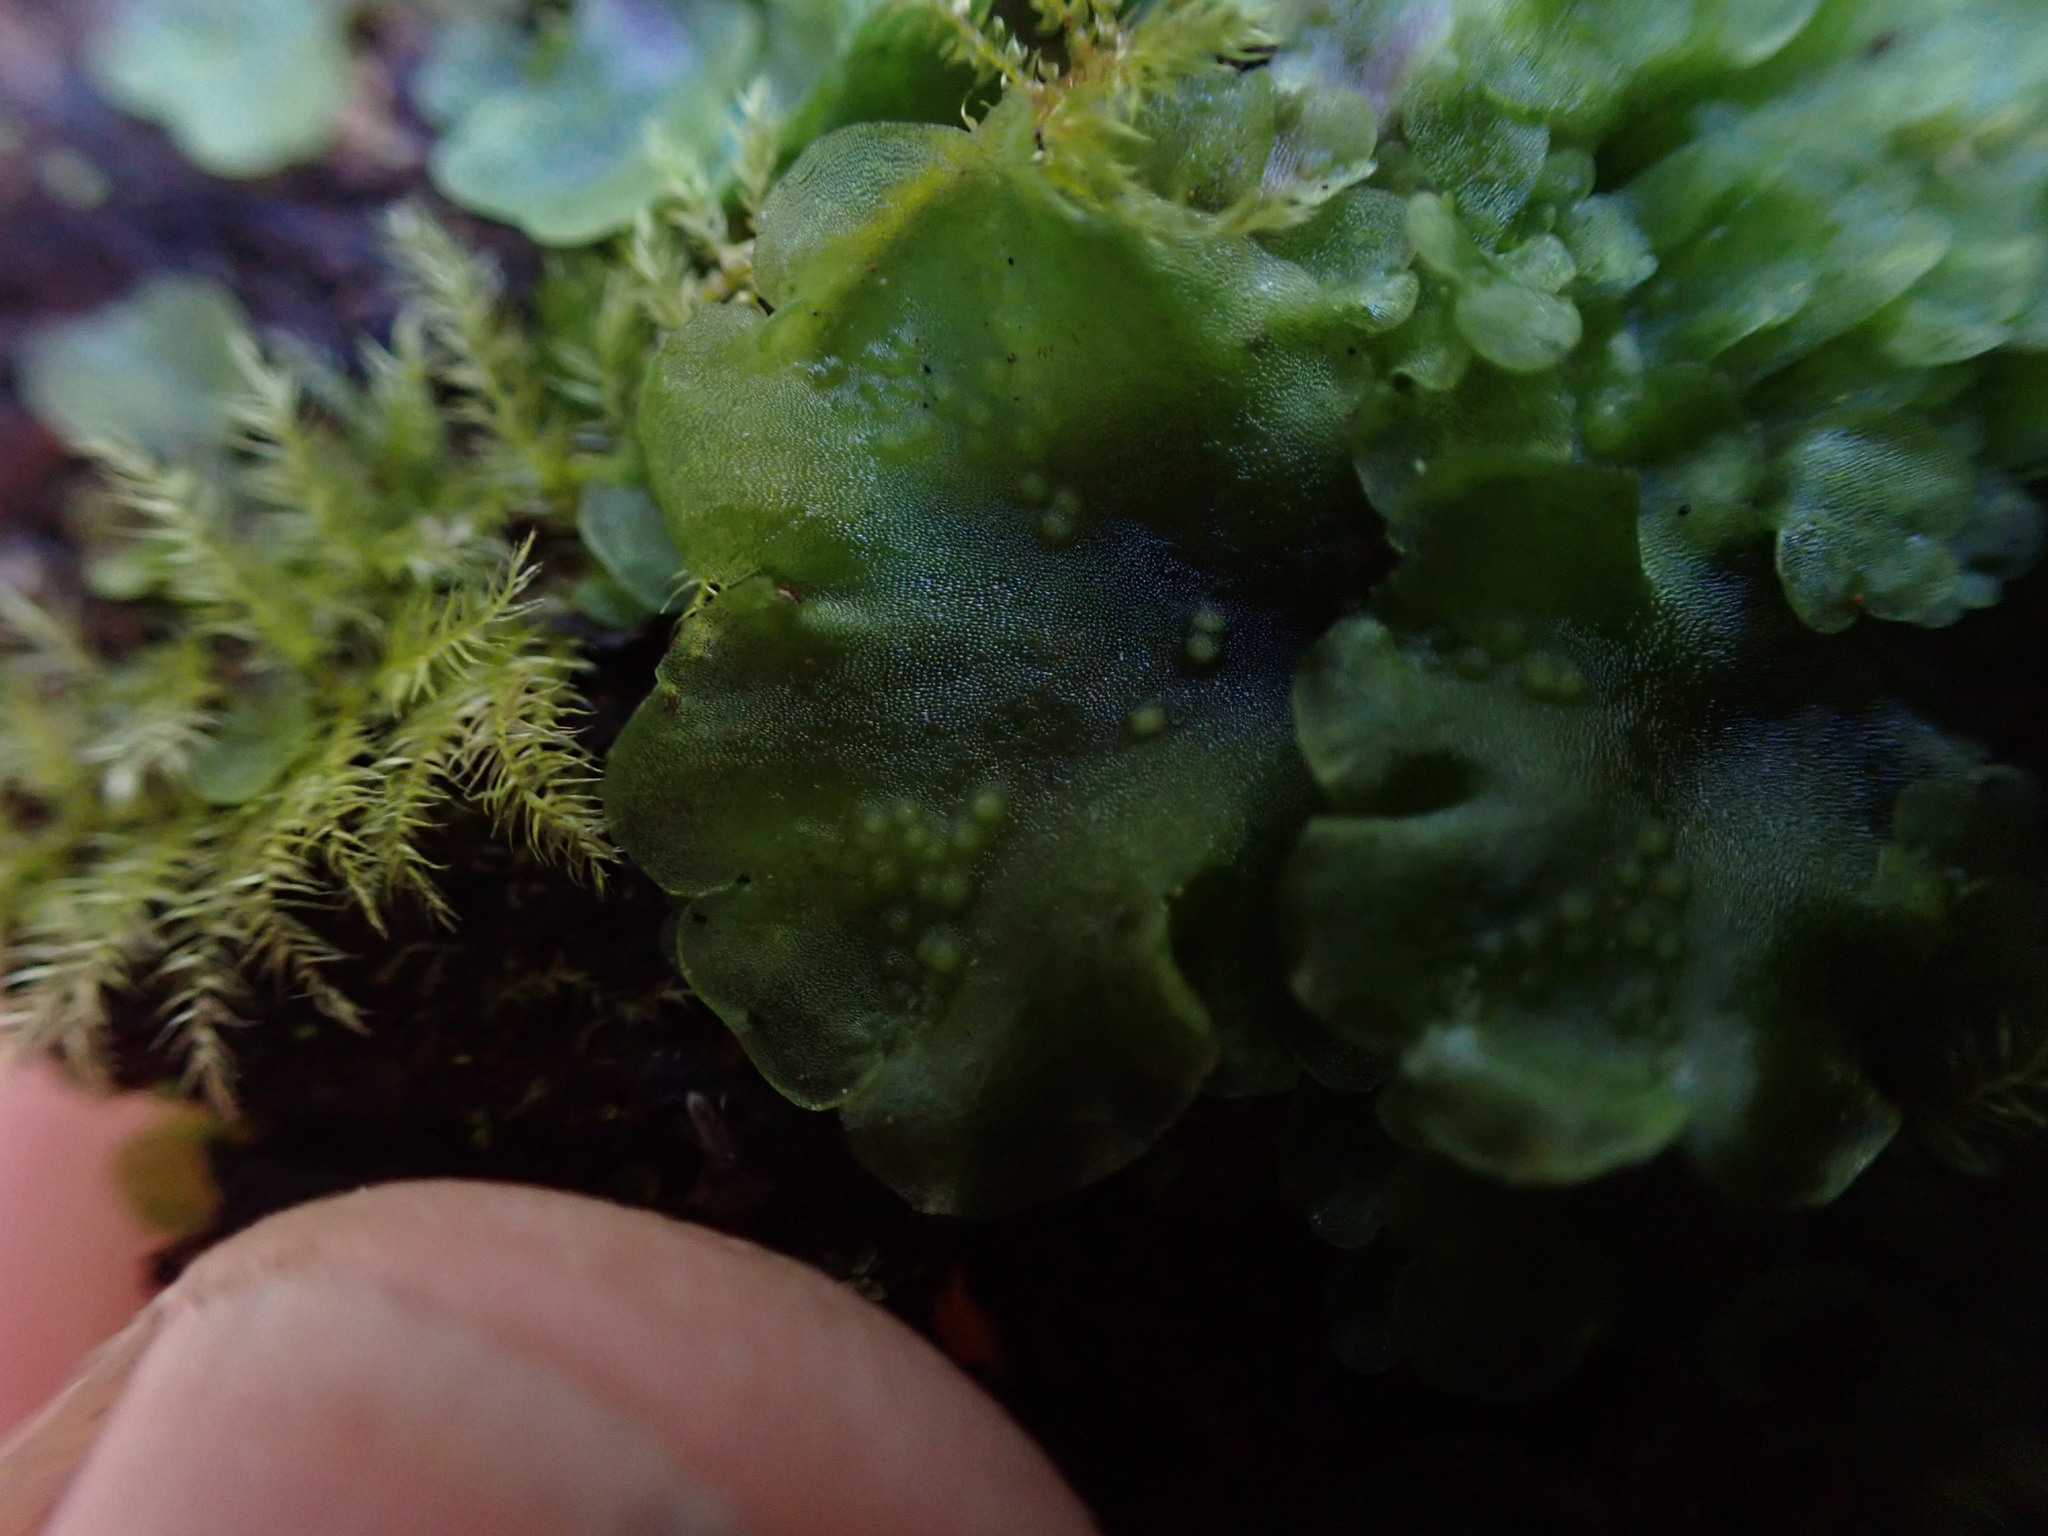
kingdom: Plantae
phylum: Marchantiophyta
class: Jungermanniopsida
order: Pelliales
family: Pelliaceae
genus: Pellia
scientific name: Pellia neesiana
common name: Nees  pellia
